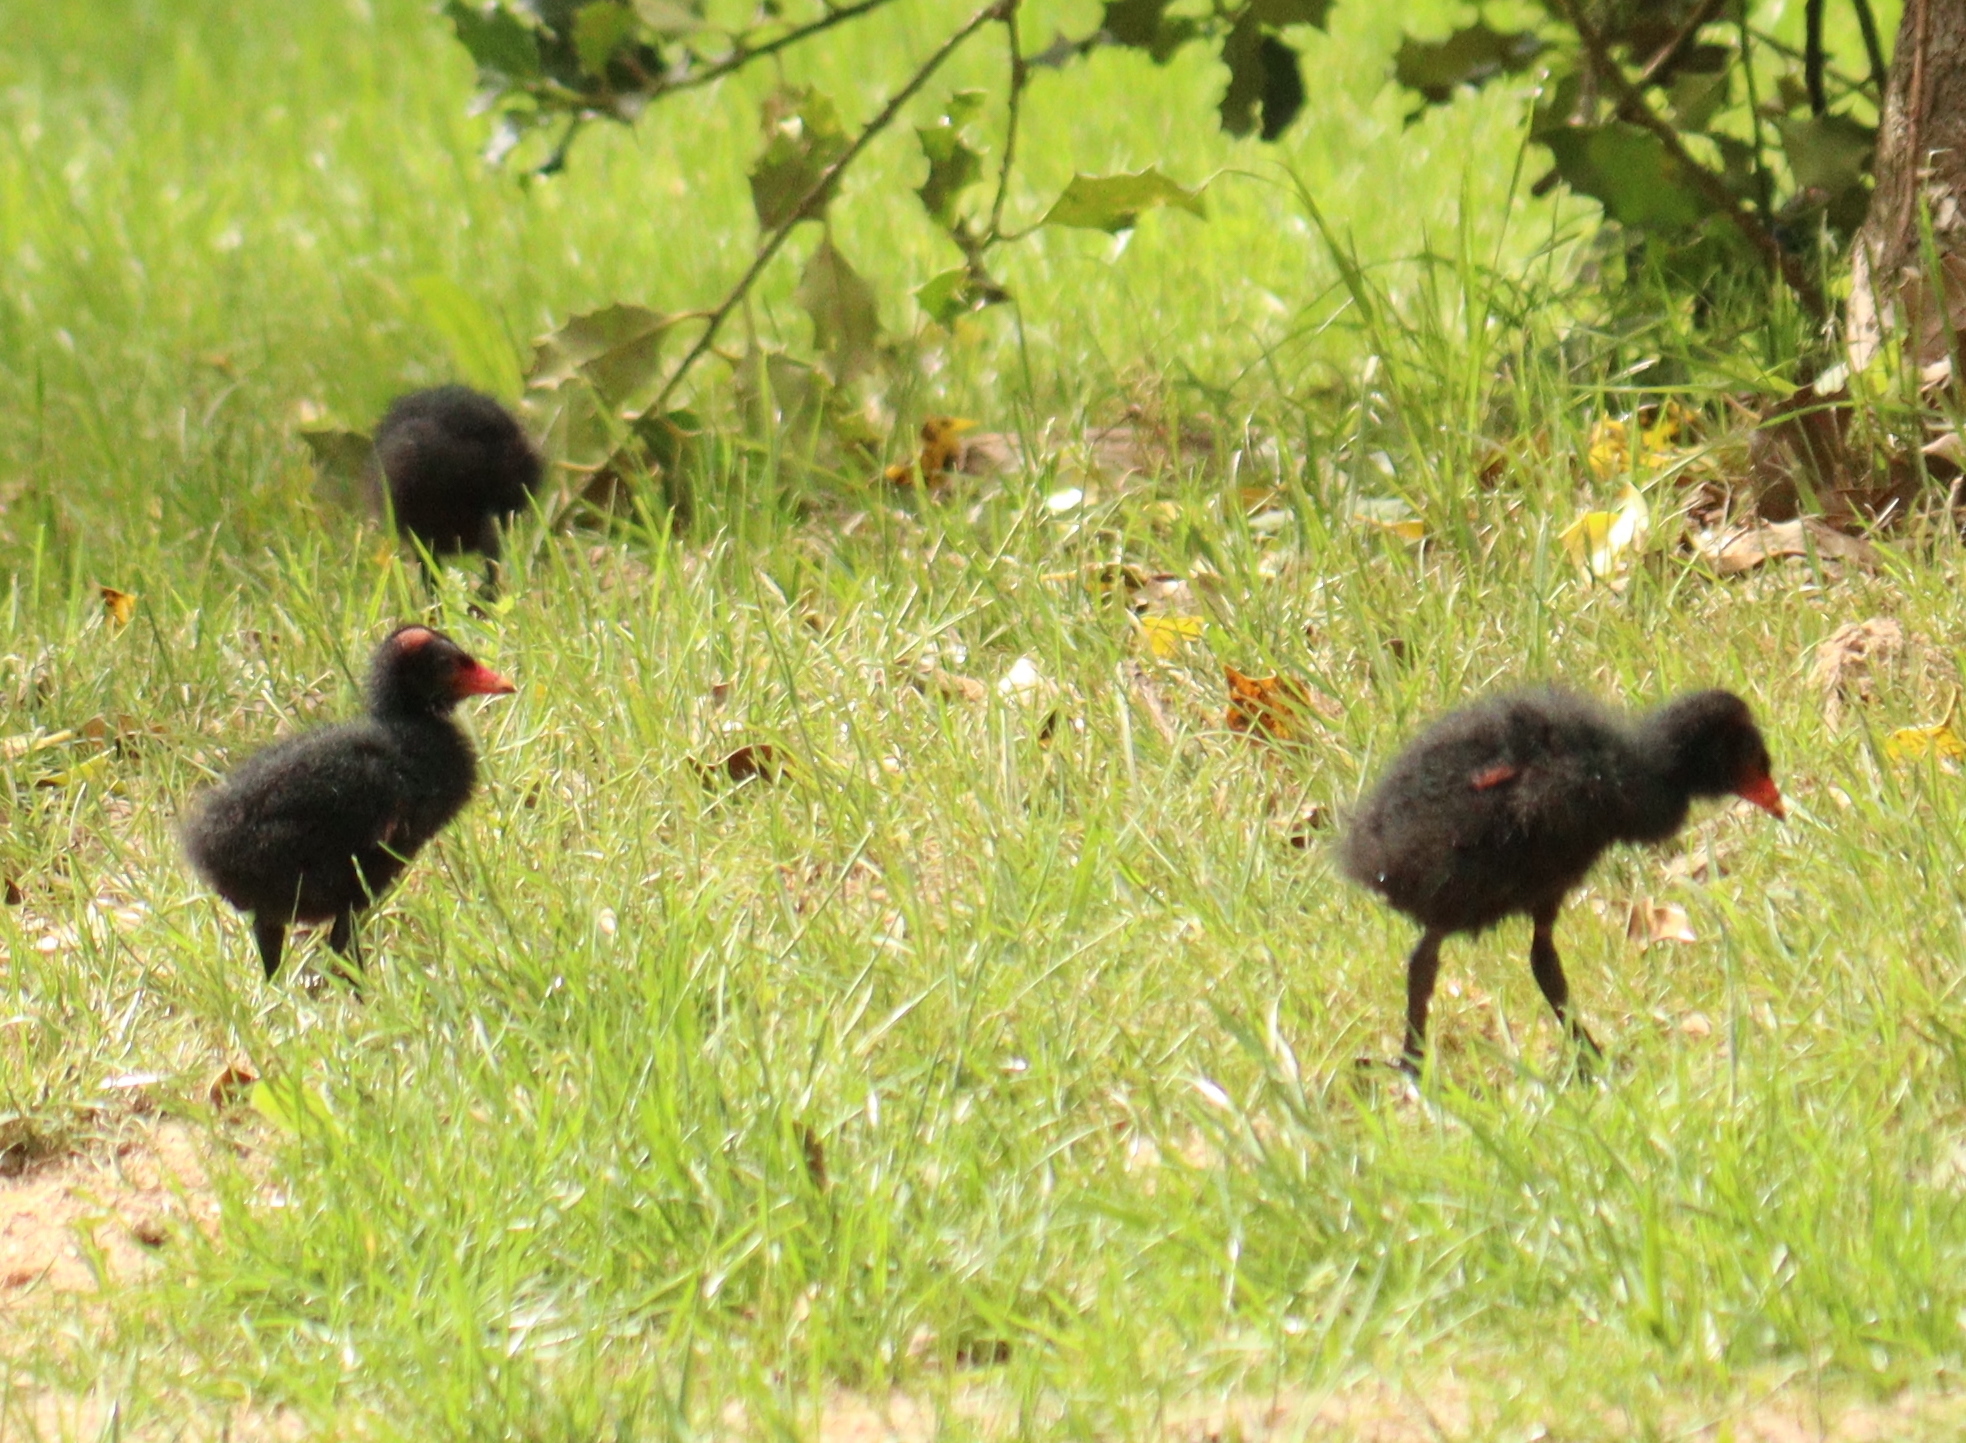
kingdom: Animalia
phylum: Chordata
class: Aves
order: Gruiformes
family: Rallidae
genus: Gallinula
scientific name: Gallinula chloropus
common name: Common moorhen
